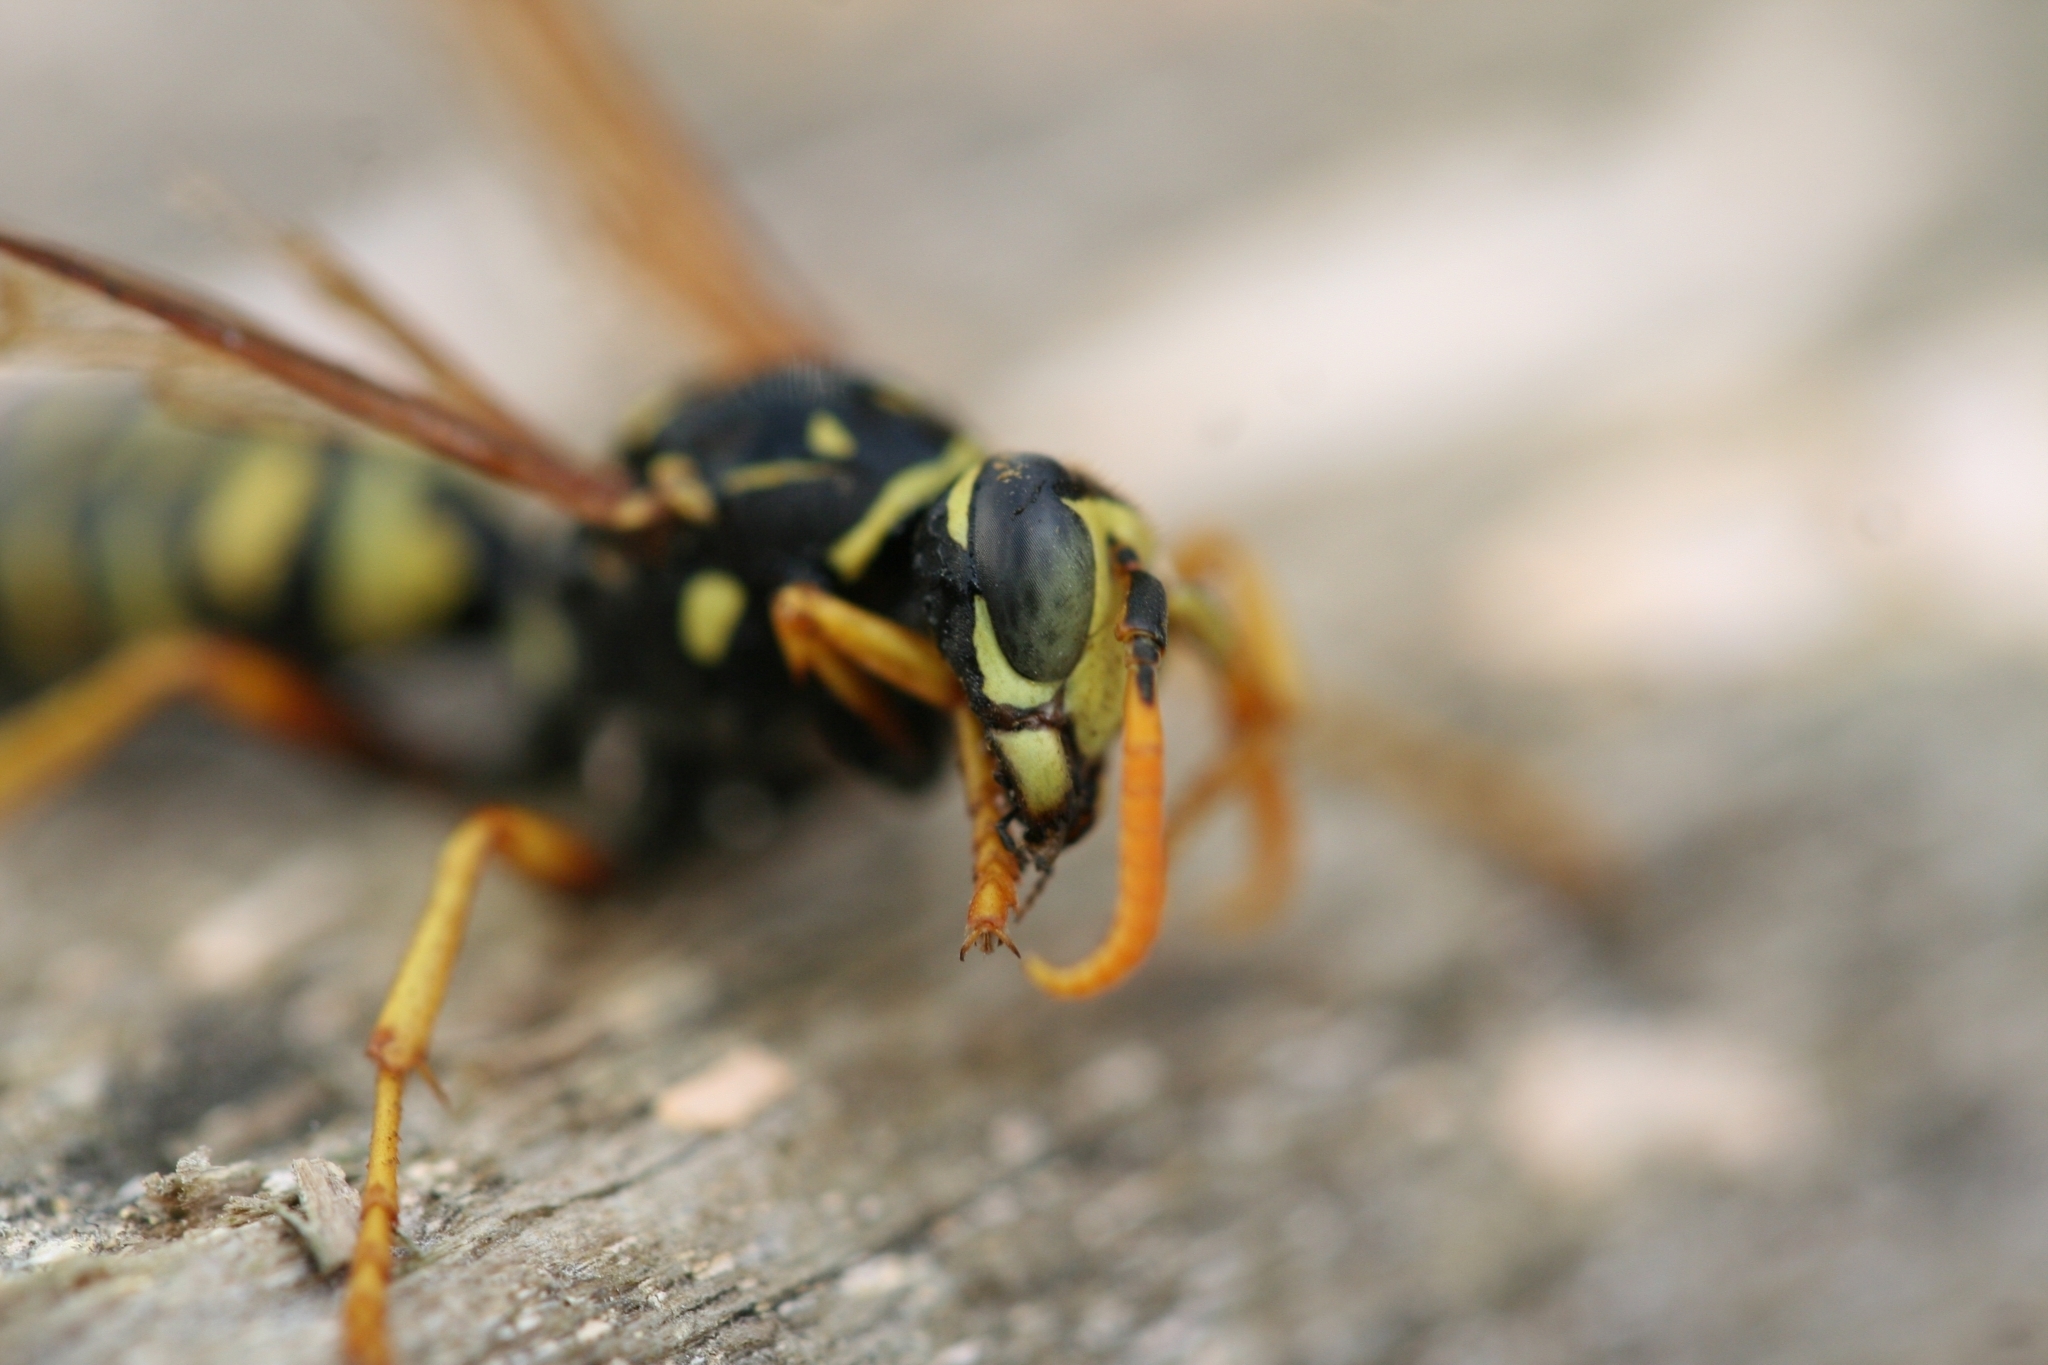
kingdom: Animalia
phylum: Arthropoda
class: Insecta
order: Hymenoptera
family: Eumenidae
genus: Polistes
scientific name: Polistes dominula
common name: Paper wasp
